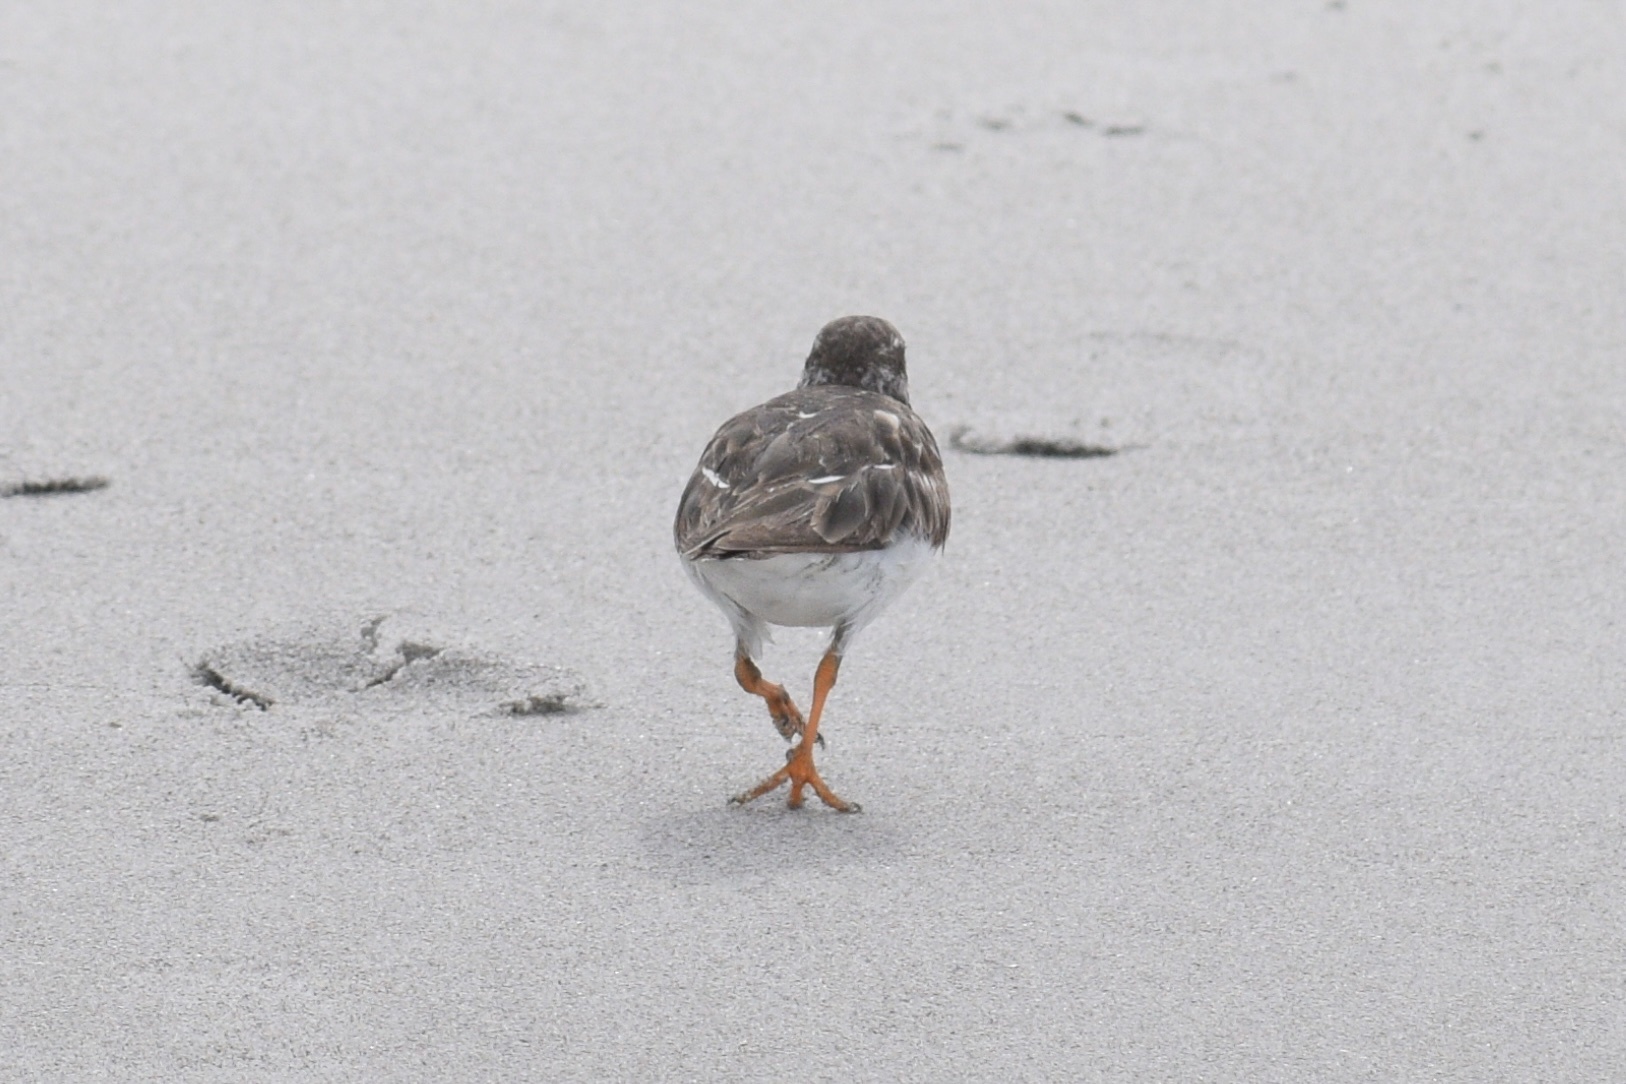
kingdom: Animalia
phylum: Chordata
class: Aves
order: Charadriiformes
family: Scolopacidae
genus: Arenaria
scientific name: Arenaria interpres
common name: Ruddy turnstone
